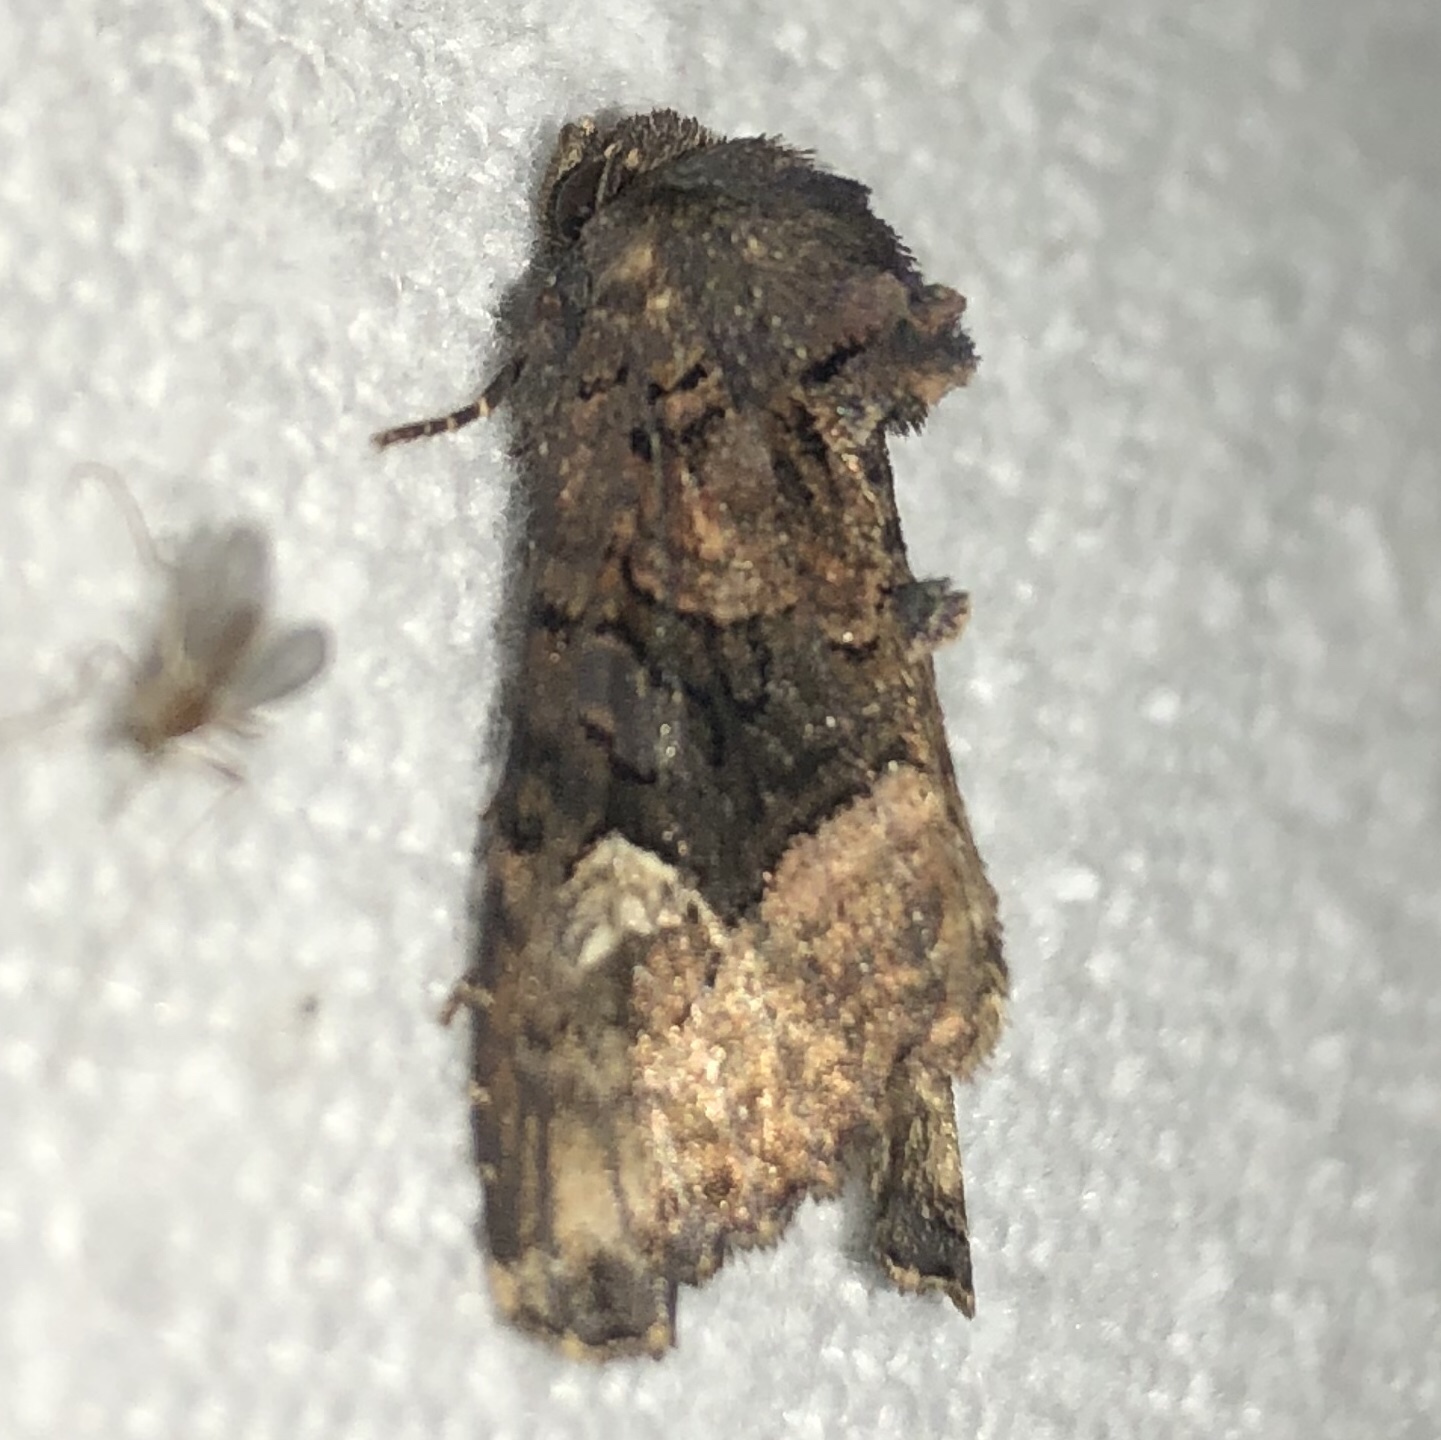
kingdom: Animalia
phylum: Arthropoda
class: Insecta
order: Lepidoptera
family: Noctuidae
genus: Euplexia
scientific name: Euplexia benesimilis
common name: American angle shades
